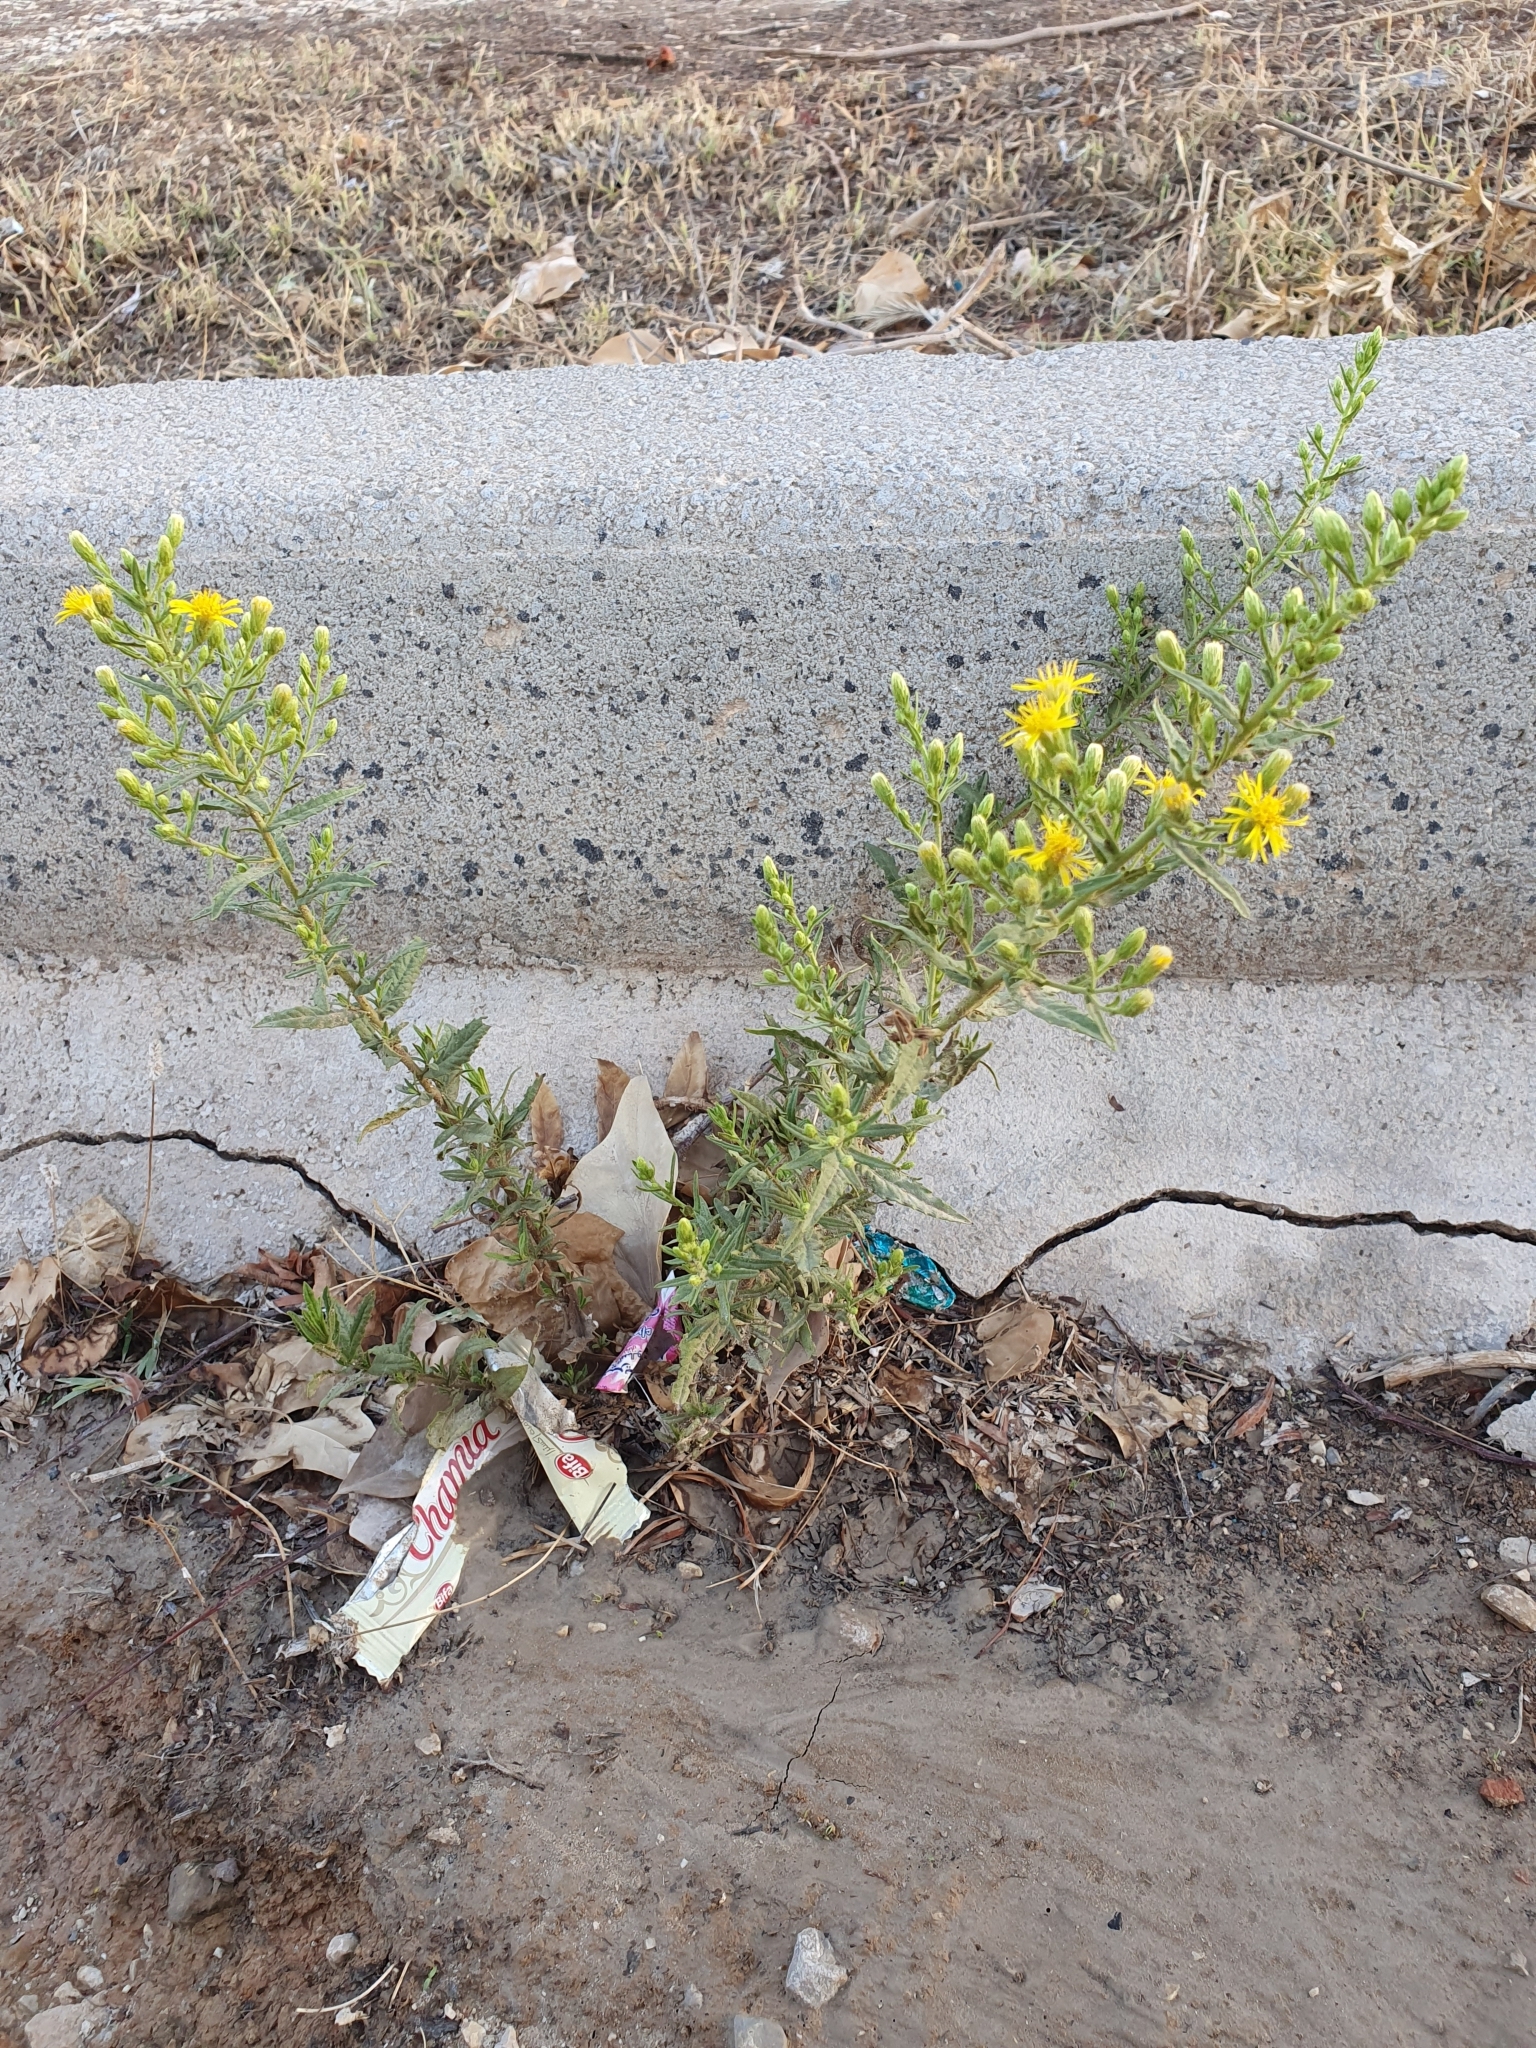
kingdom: Plantae
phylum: Tracheophyta
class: Magnoliopsida
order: Asterales
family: Asteraceae
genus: Dittrichia
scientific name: Dittrichia viscosa
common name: Woody fleabane
